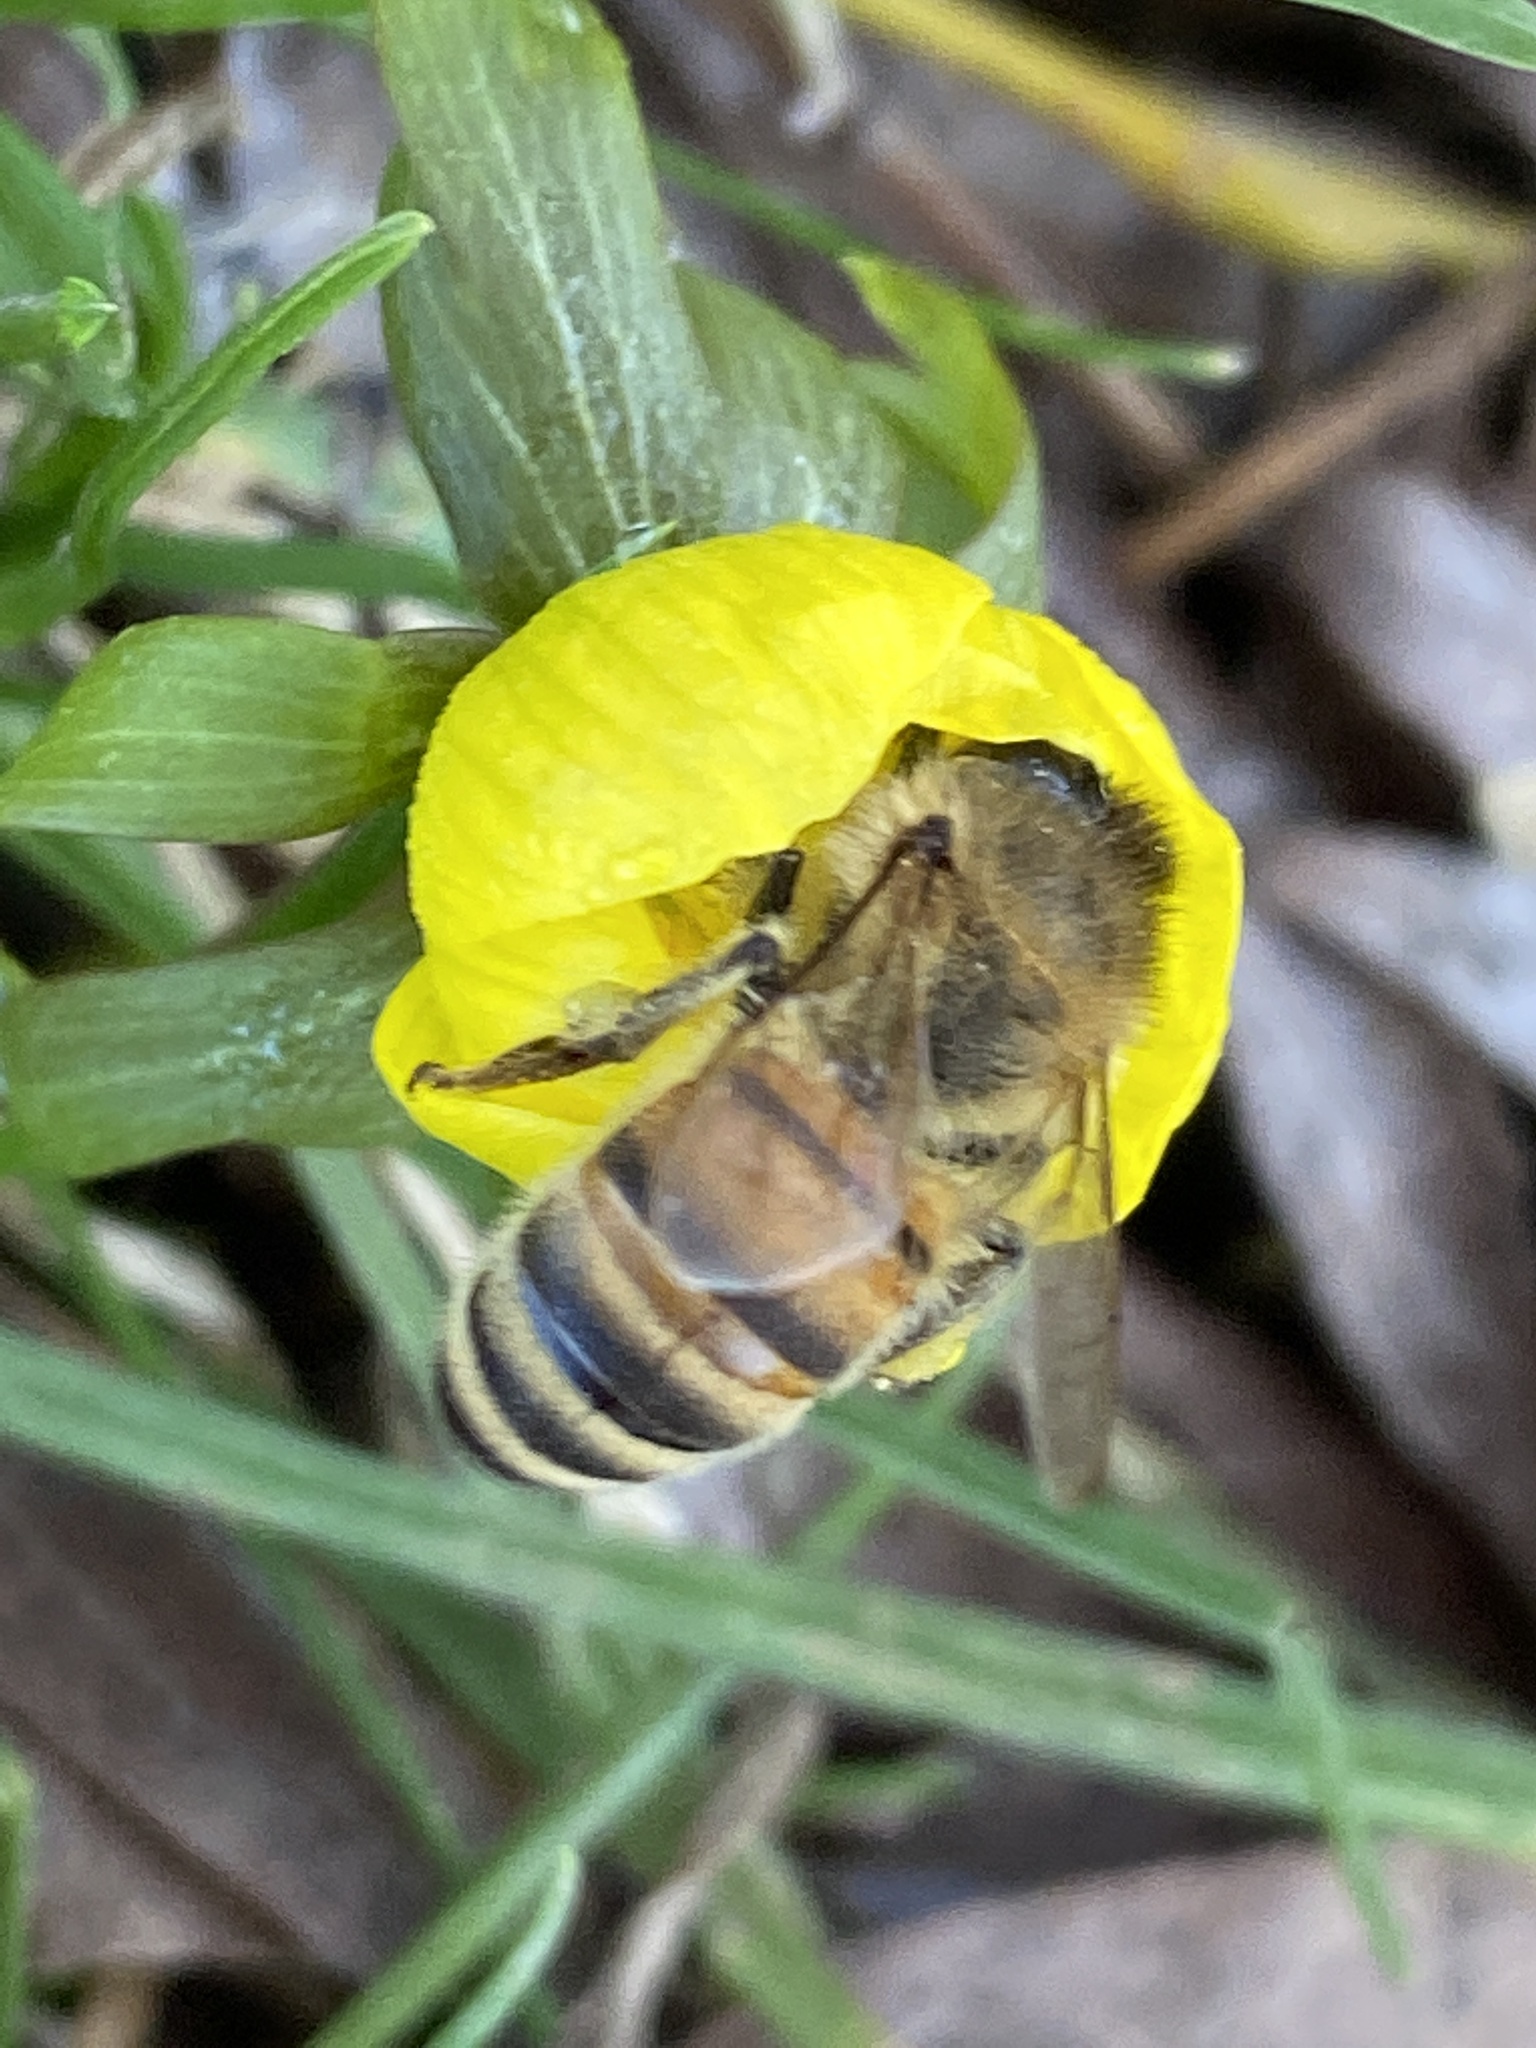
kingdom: Animalia
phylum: Arthropoda
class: Insecta
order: Hymenoptera
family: Apidae
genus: Apis
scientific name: Apis mellifera
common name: Honey bee
